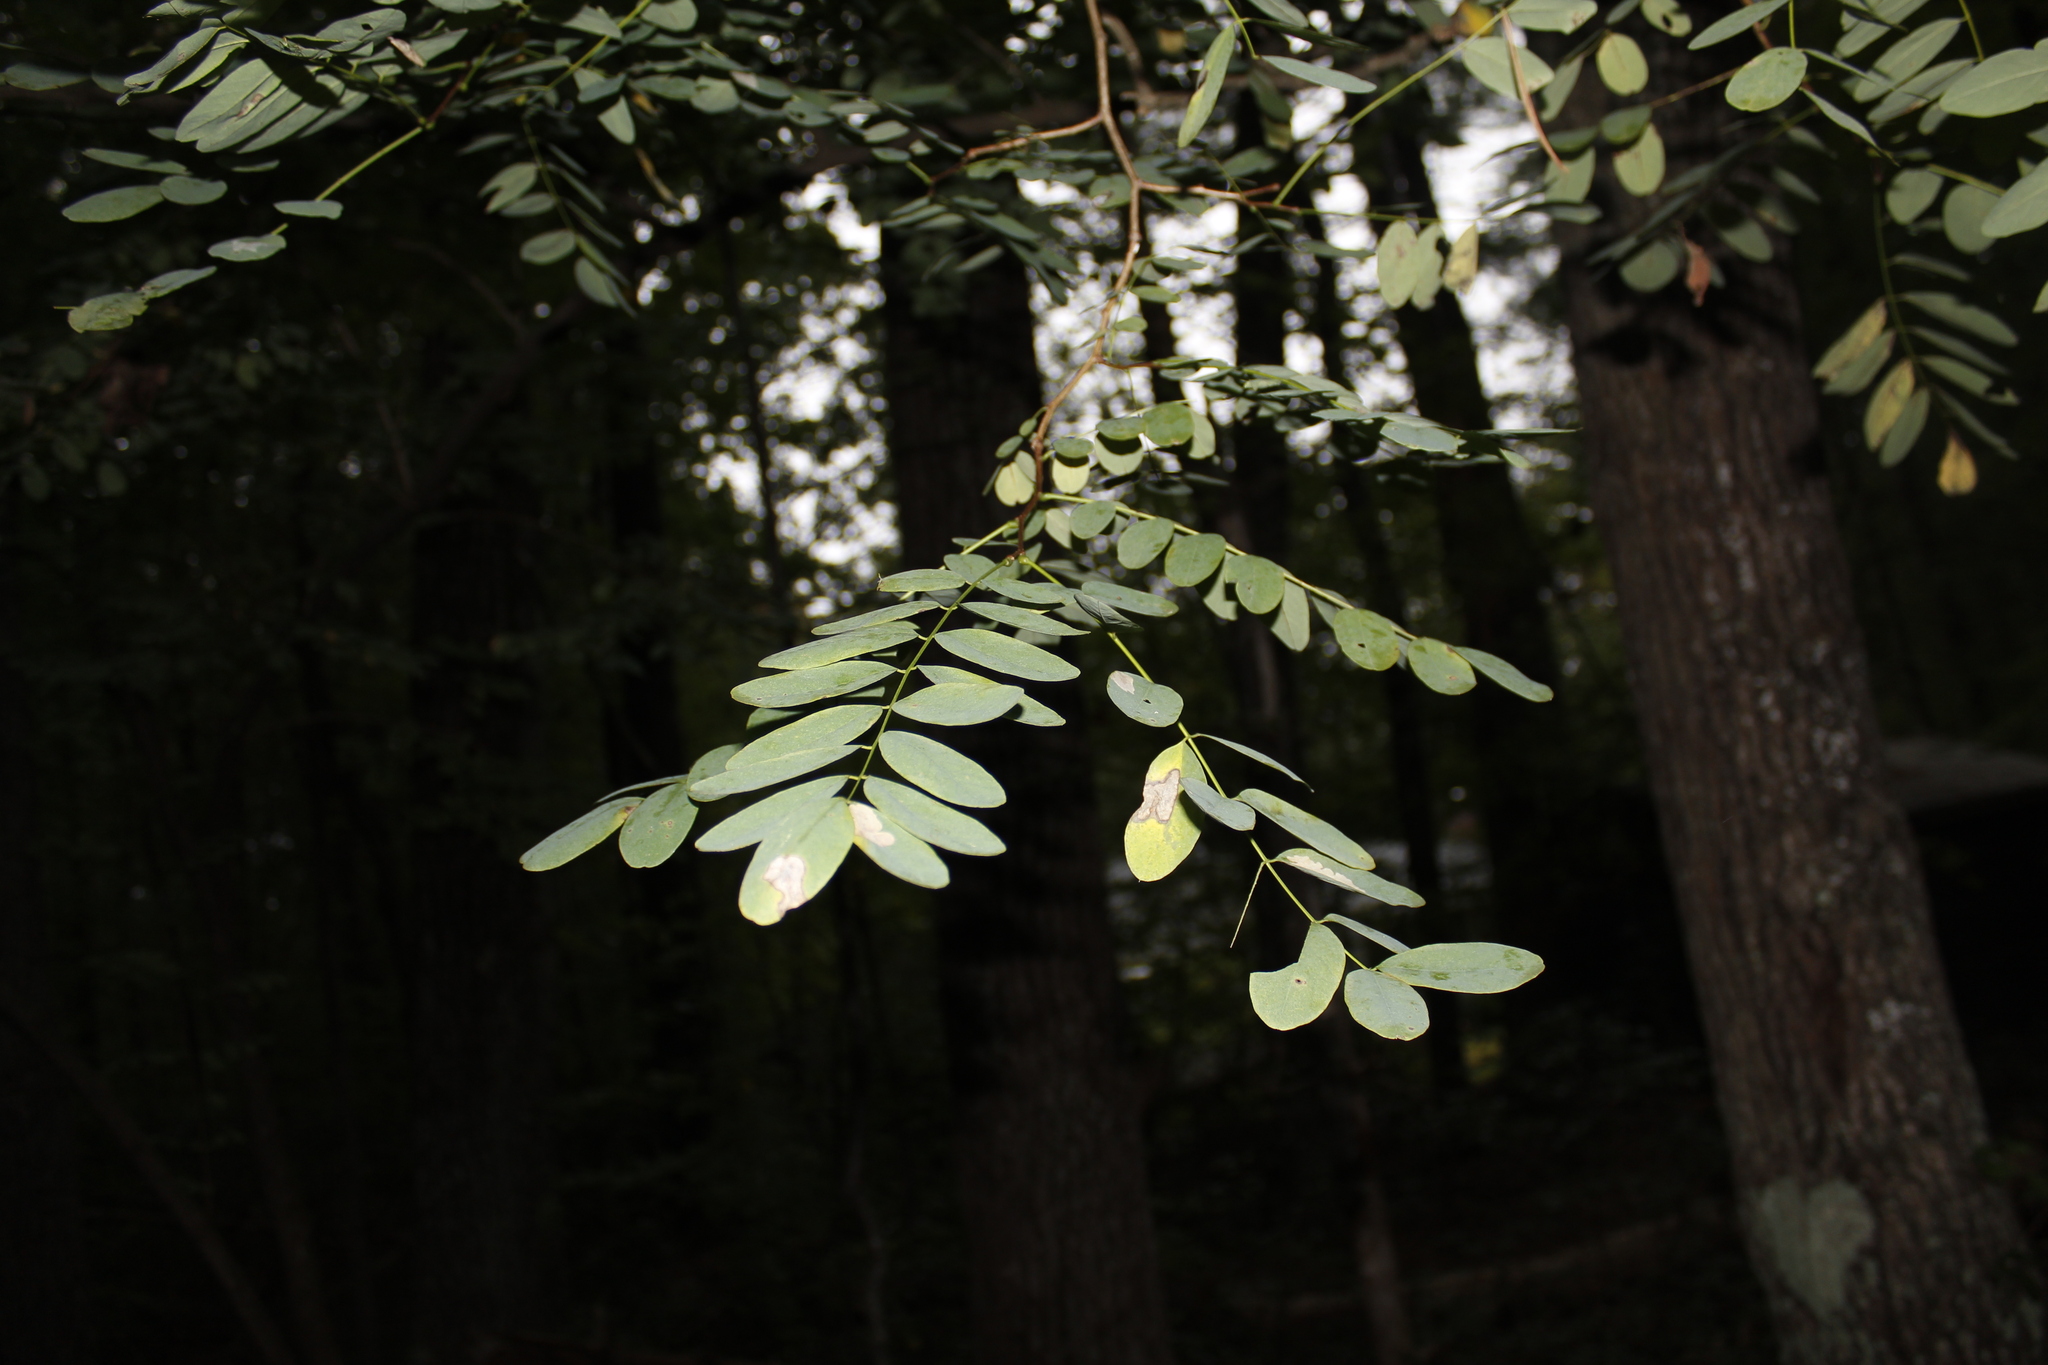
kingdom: Plantae
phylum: Tracheophyta
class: Magnoliopsida
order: Fabales
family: Fabaceae
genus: Robinia
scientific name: Robinia pseudoacacia
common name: Black locust
